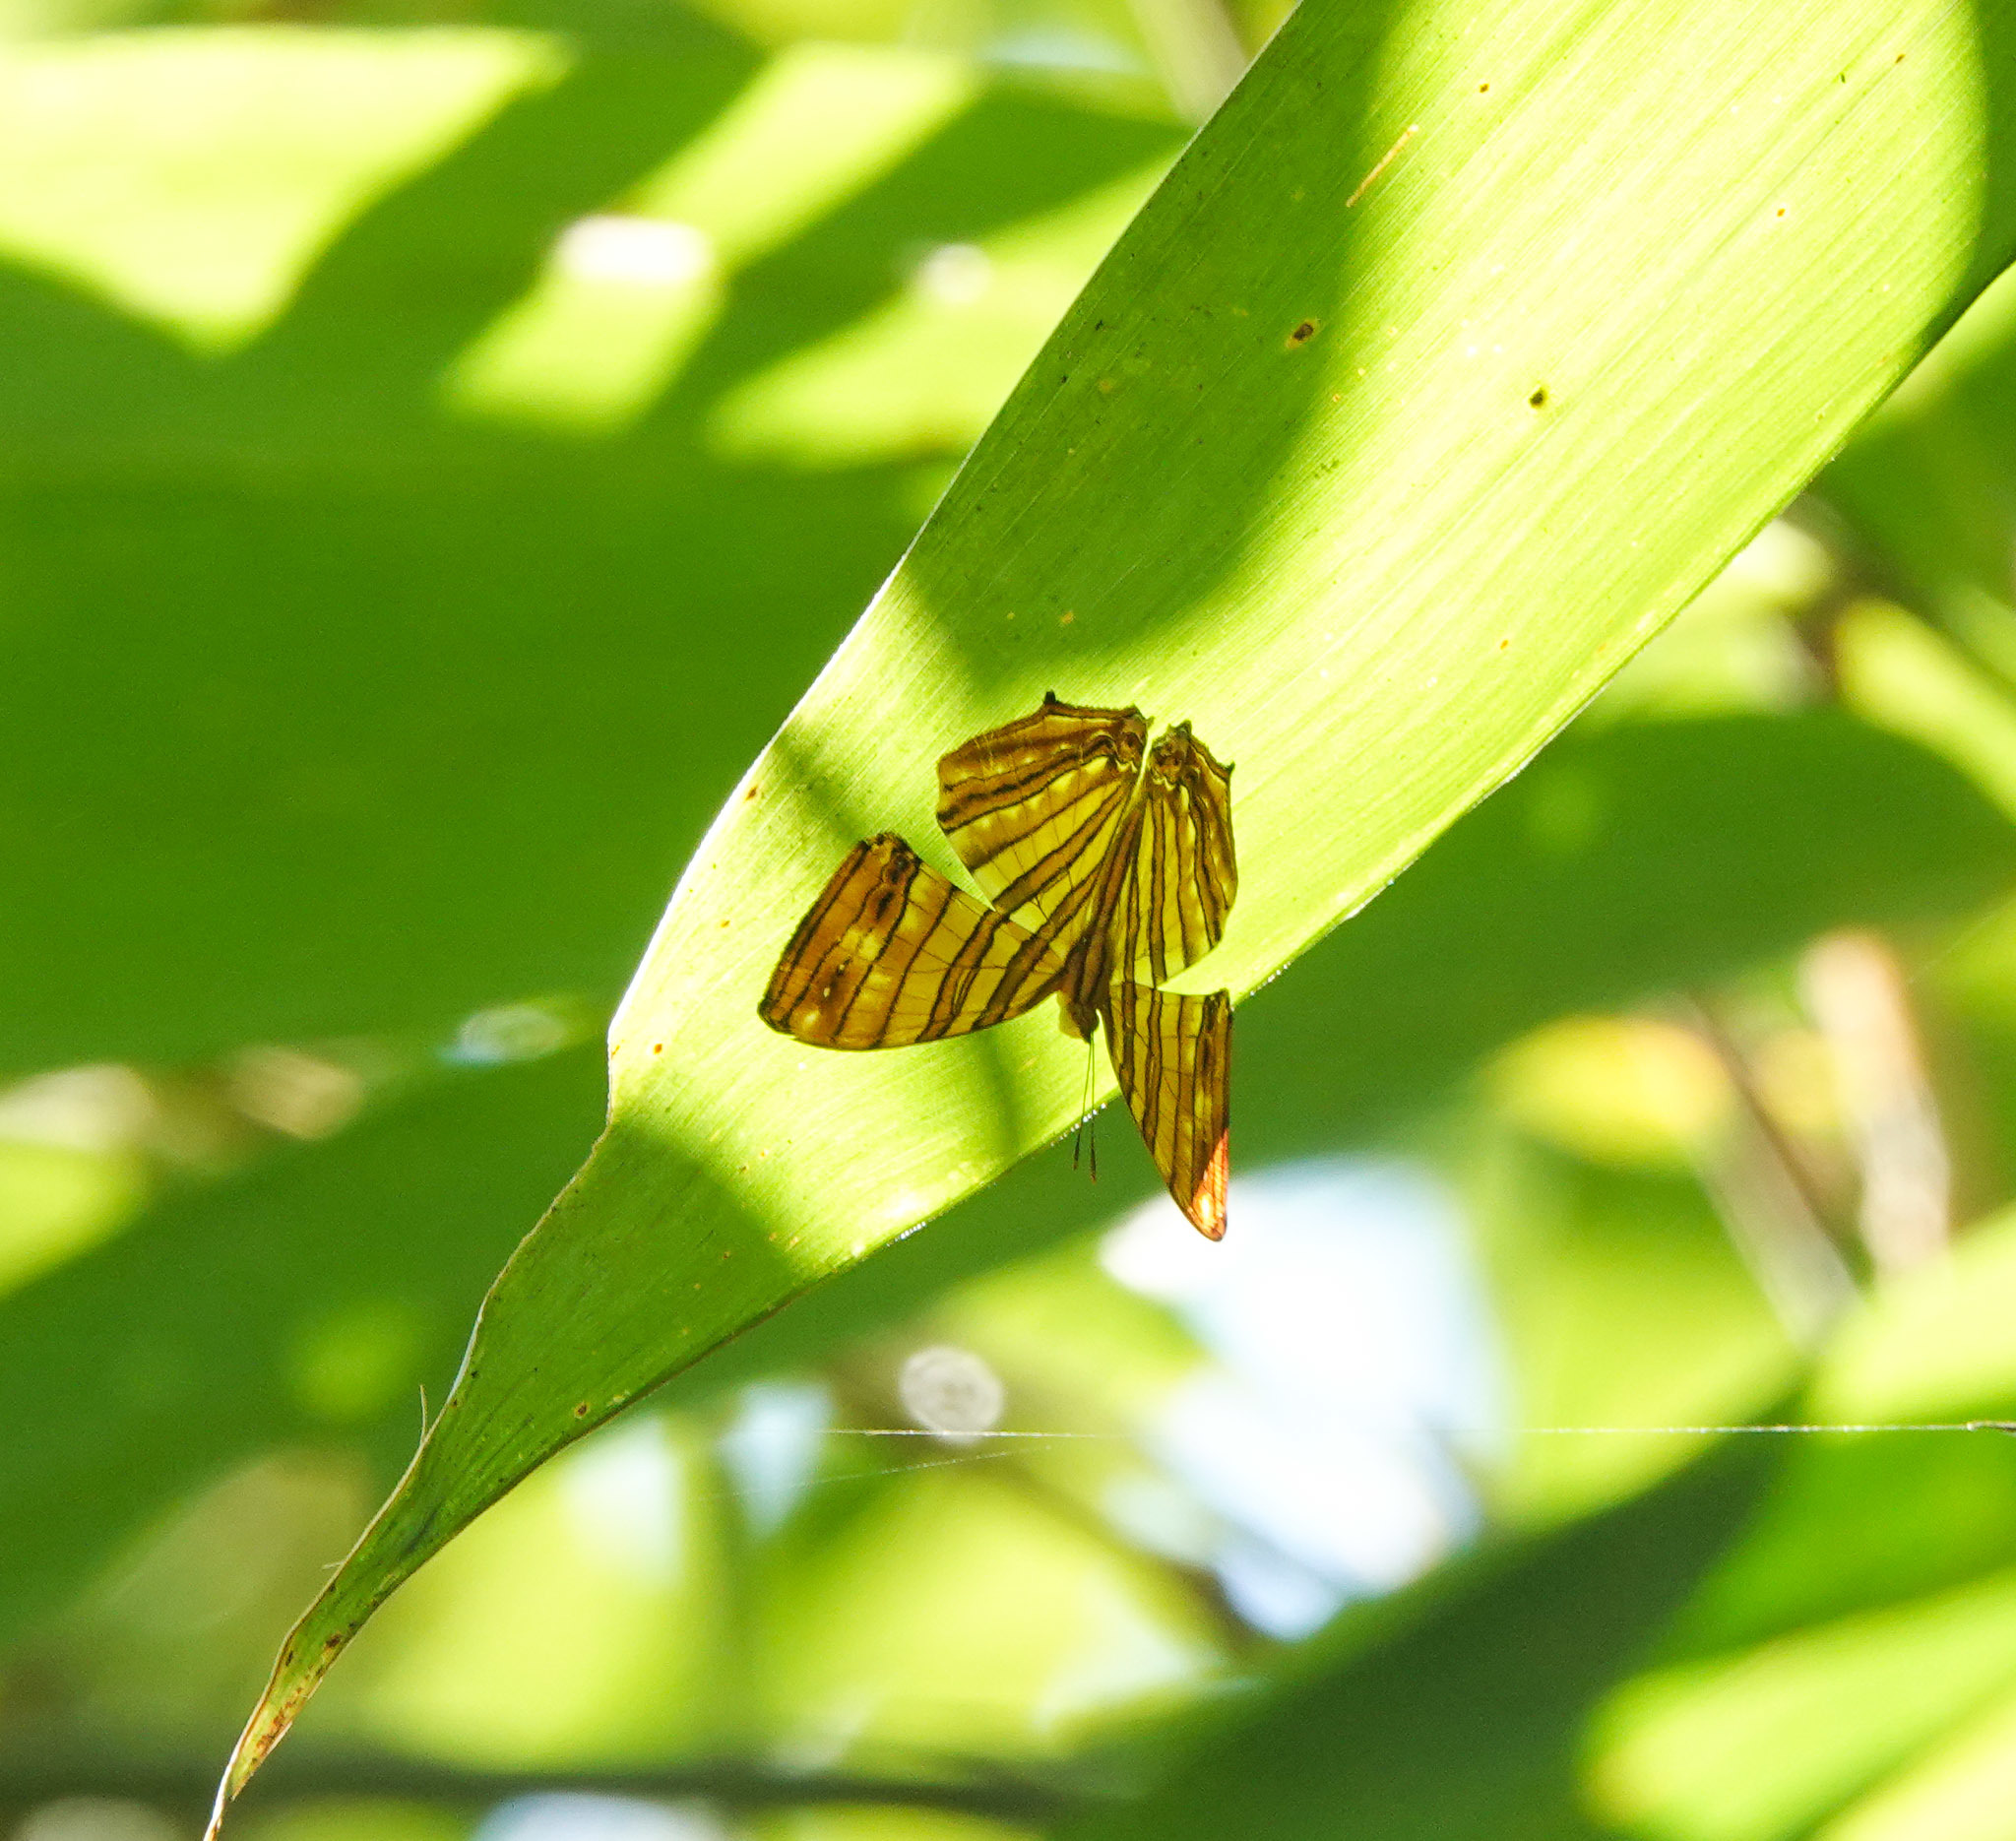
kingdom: Animalia
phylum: Arthropoda
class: Insecta
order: Lepidoptera
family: Nymphalidae
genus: Chersonesia
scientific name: Chersonesia risa
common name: Common maplet
